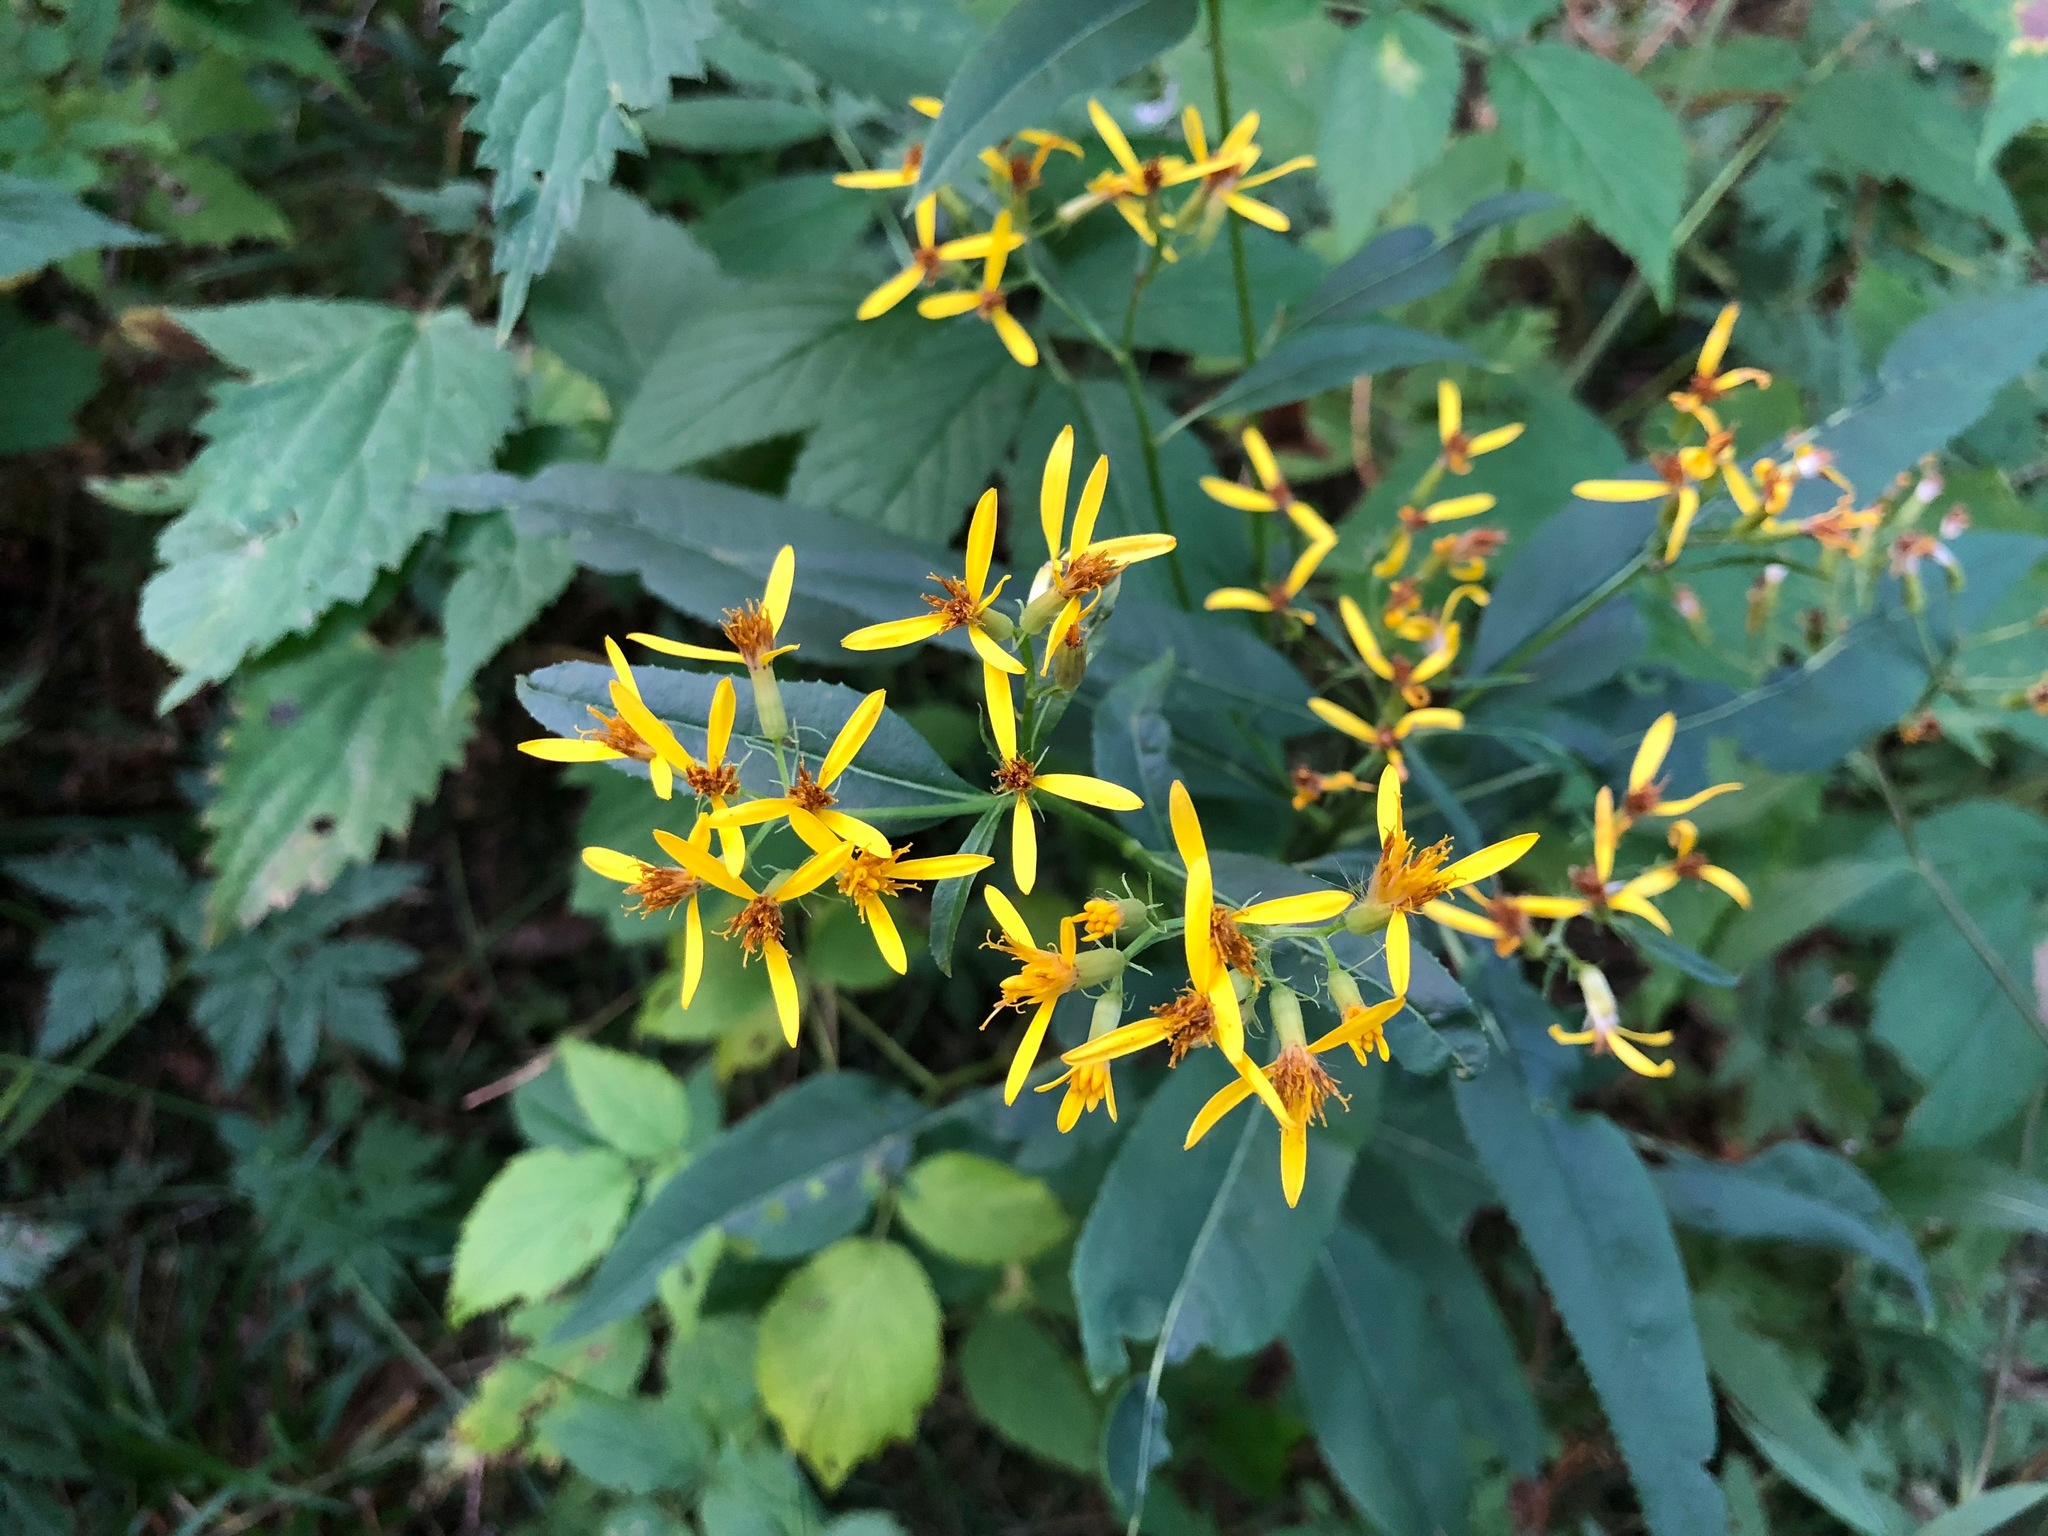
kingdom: Plantae
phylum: Tracheophyta
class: Magnoliopsida
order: Asterales
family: Asteraceae
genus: Senecio
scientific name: Senecio hercynicus
